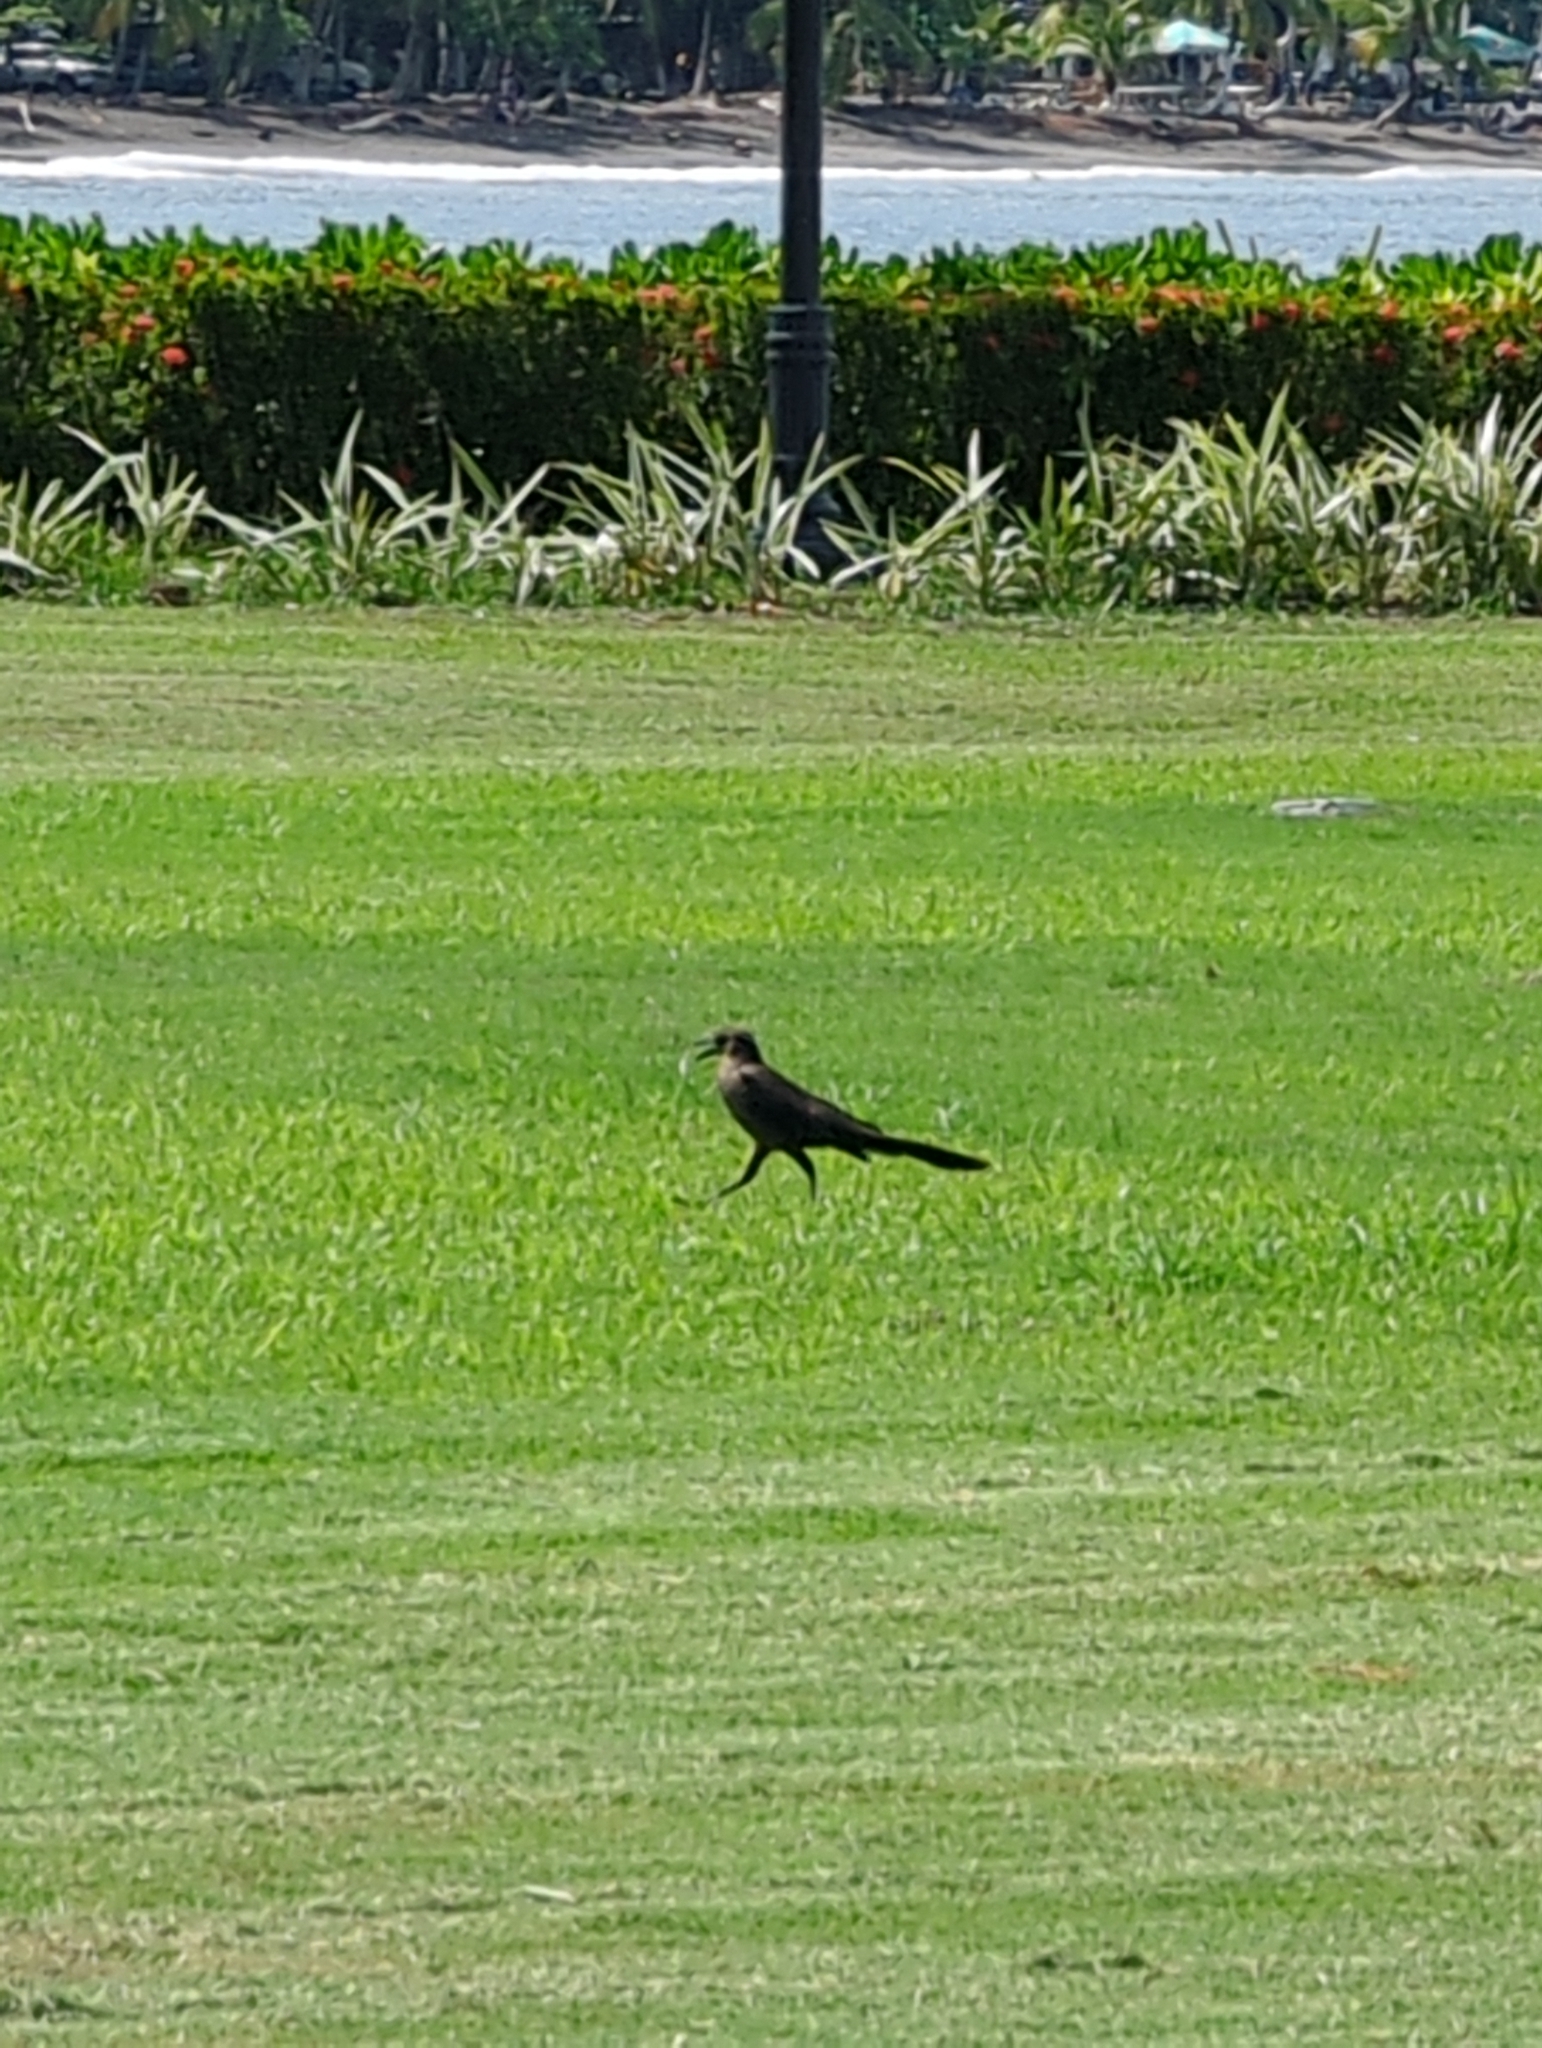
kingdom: Animalia
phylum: Chordata
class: Aves
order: Passeriformes
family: Icteridae
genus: Quiscalus
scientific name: Quiscalus mexicanus
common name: Great-tailed grackle
